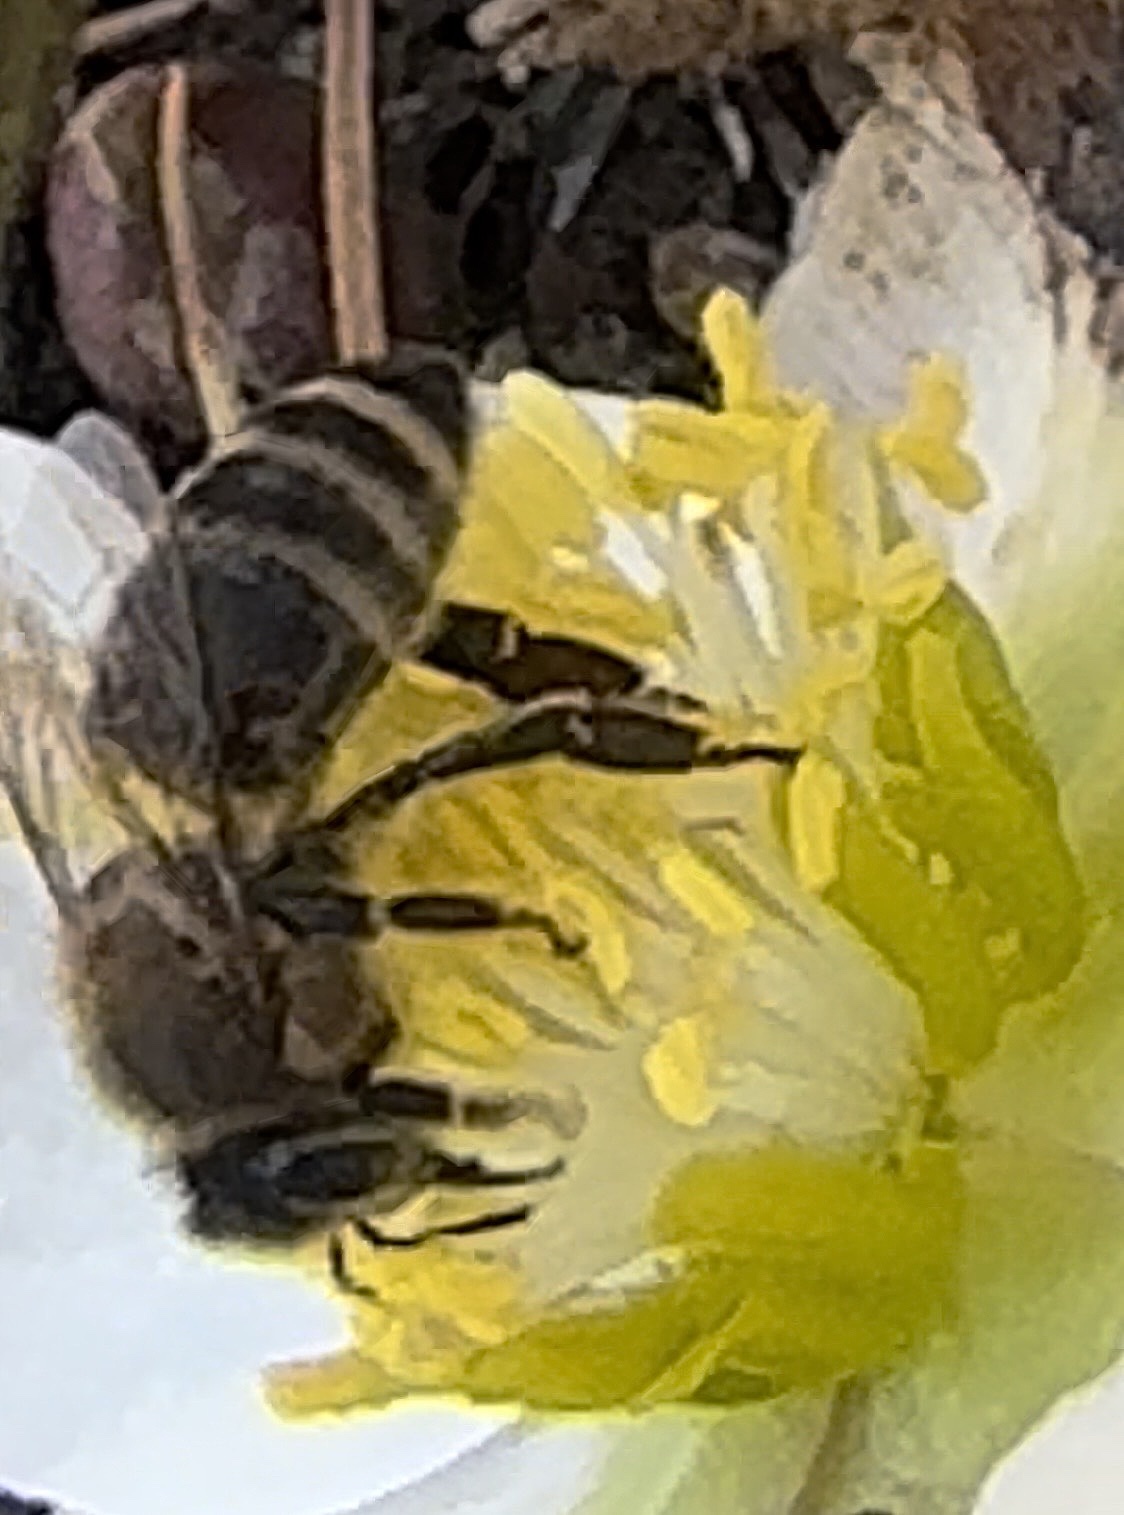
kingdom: Animalia
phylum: Arthropoda
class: Insecta
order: Hymenoptera
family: Apidae
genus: Apis
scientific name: Apis mellifera
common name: Honey bee
